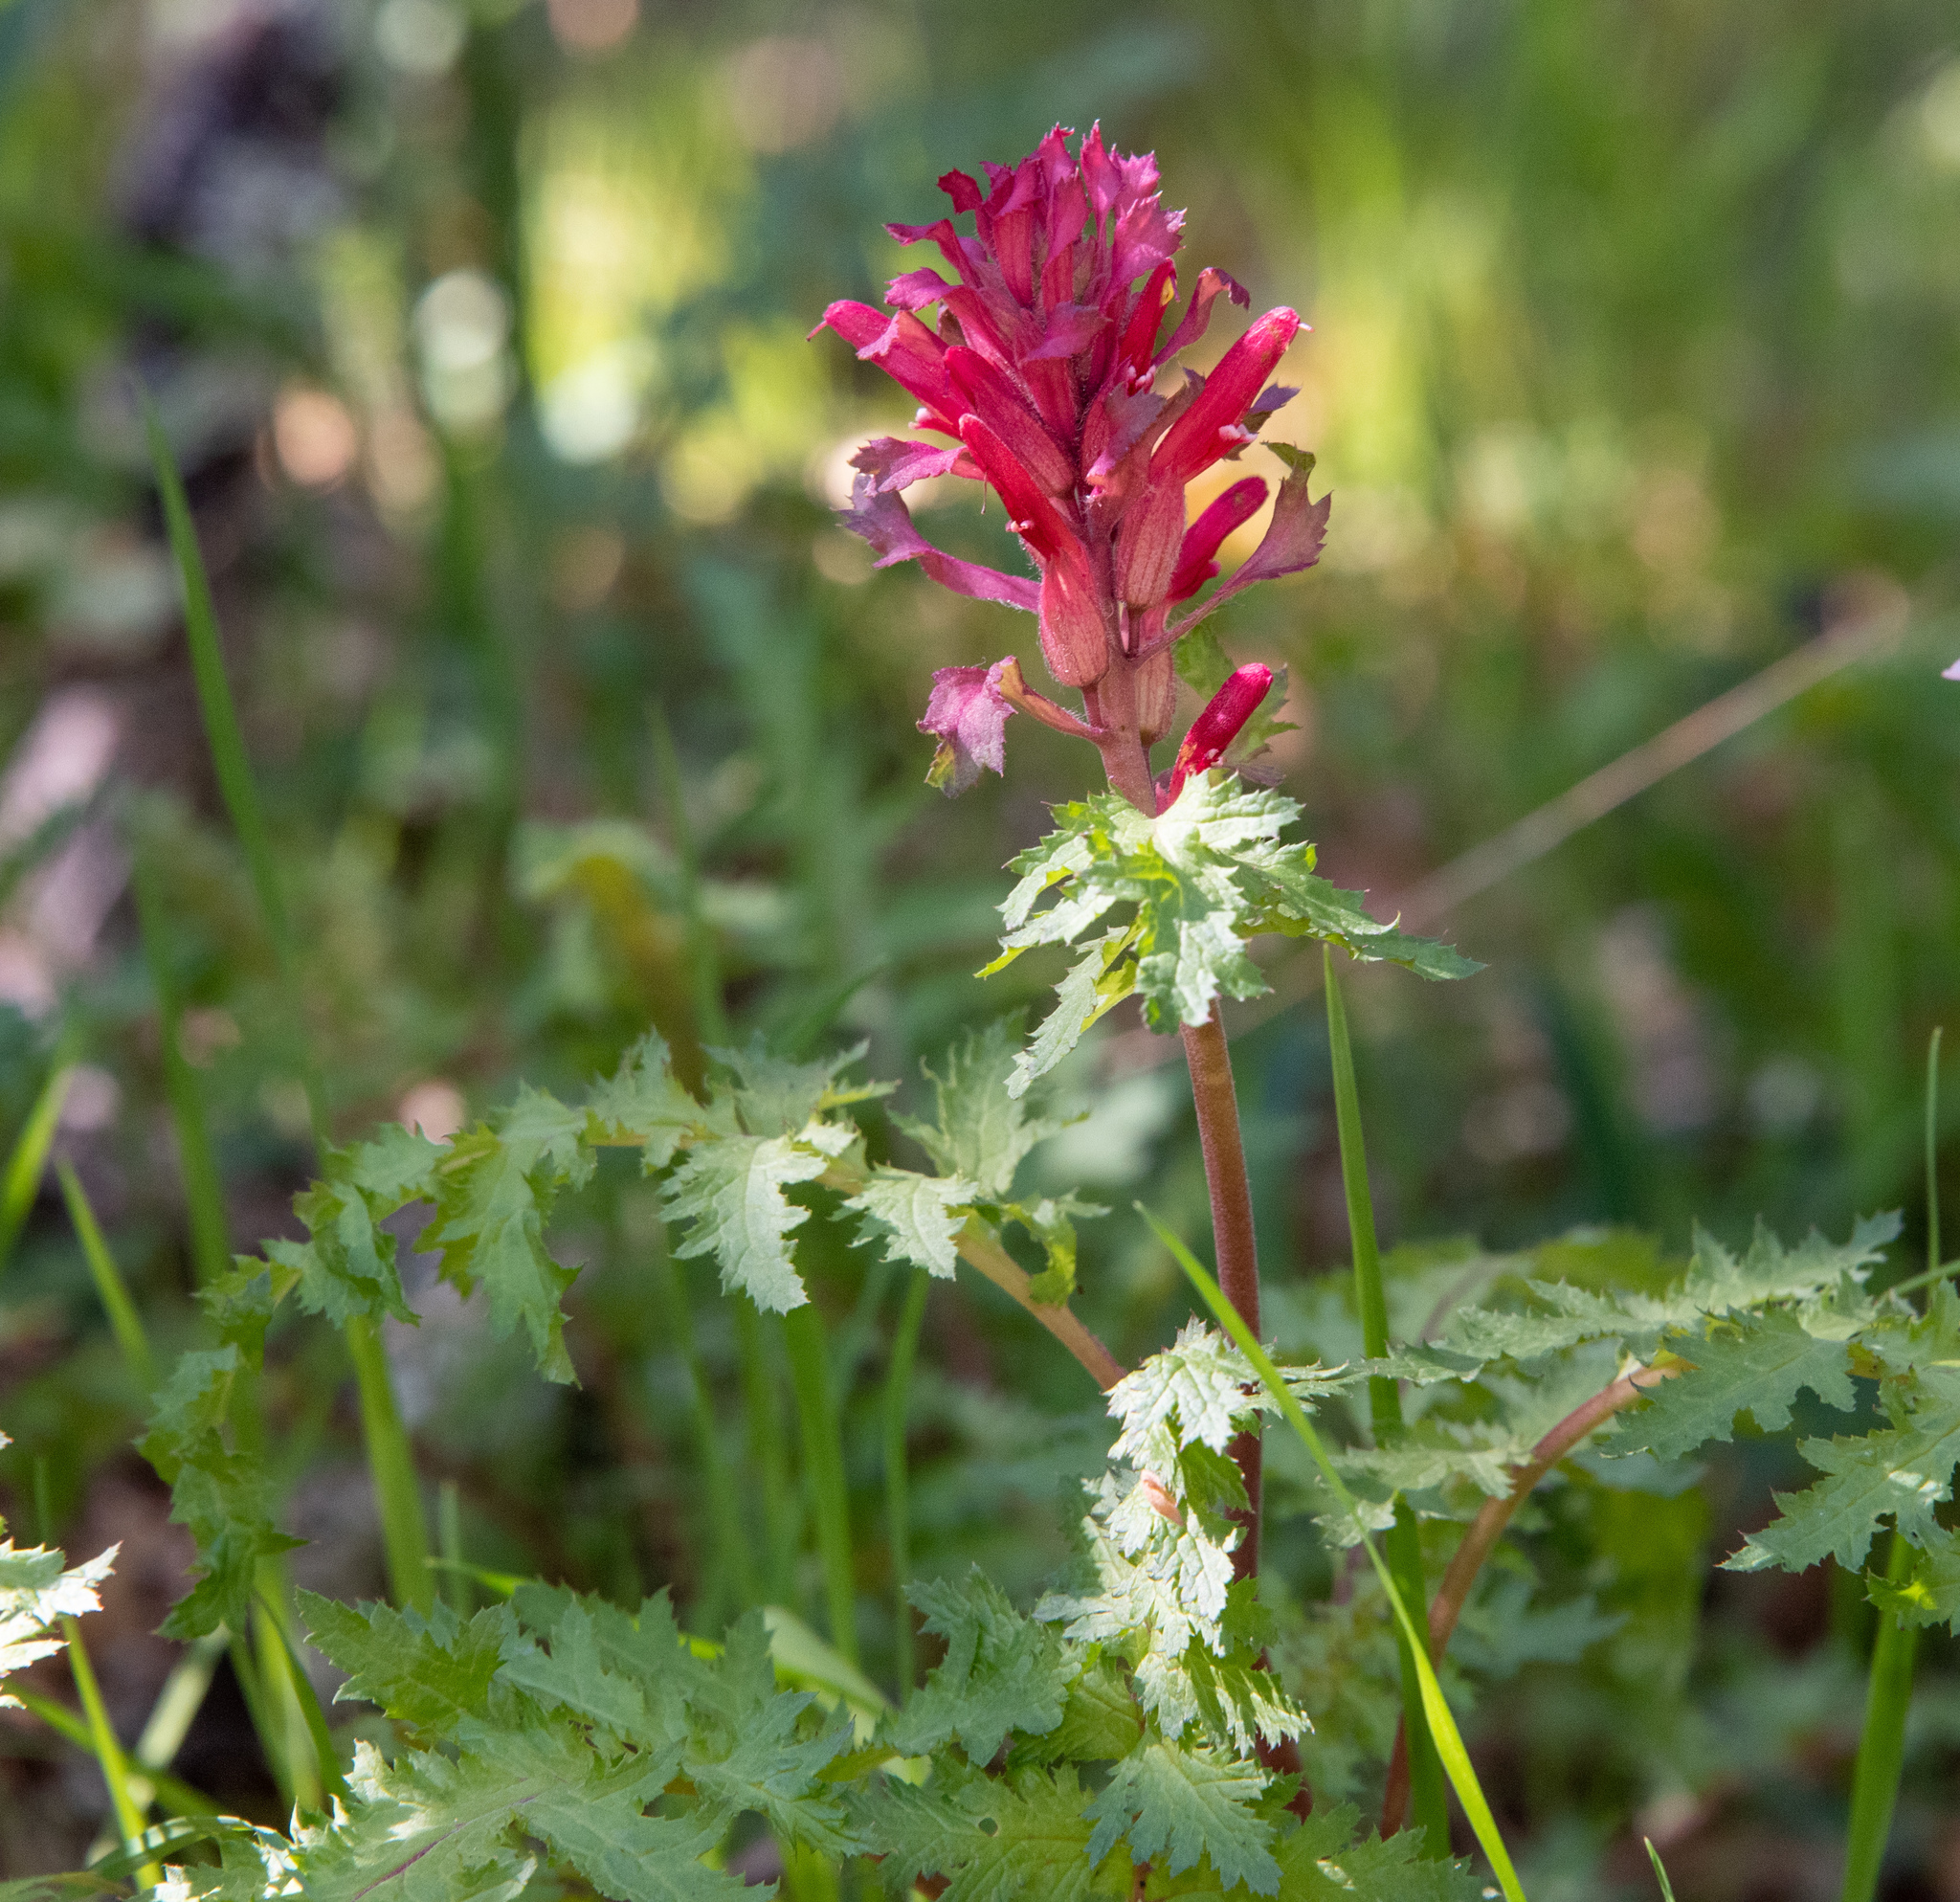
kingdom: Plantae
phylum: Tracheophyta
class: Magnoliopsida
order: Lamiales
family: Orobanchaceae
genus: Pedicularis
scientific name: Pedicularis densiflora
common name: Indian warrior
